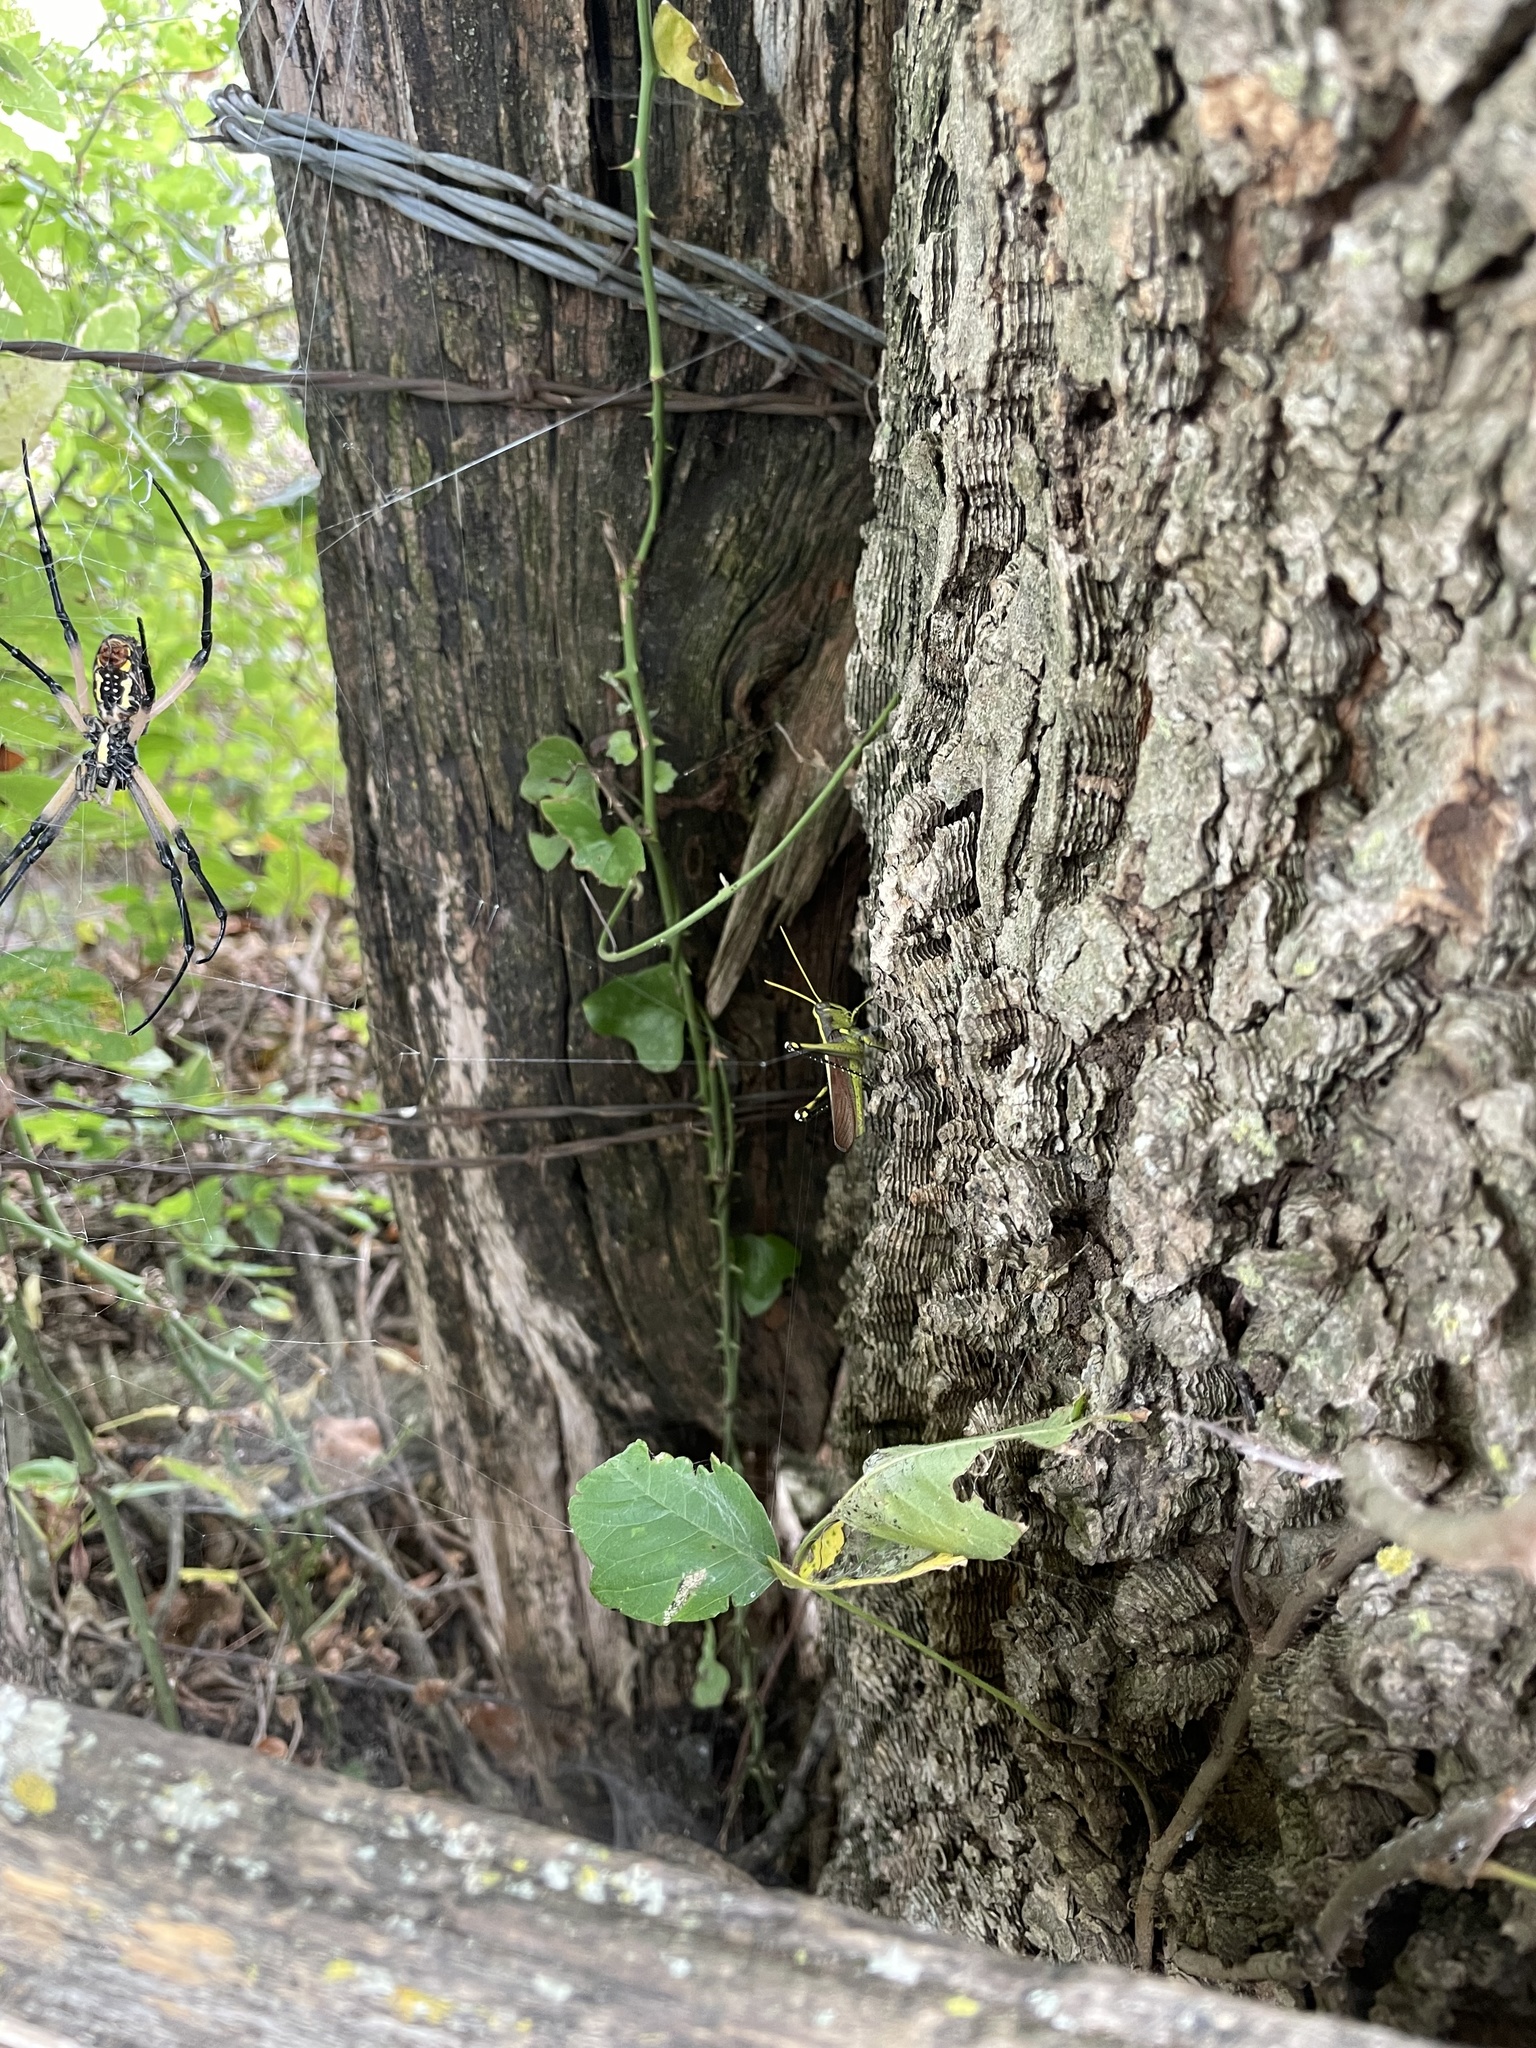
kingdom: Animalia
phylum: Arthropoda
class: Insecta
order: Orthoptera
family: Acrididae
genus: Schistocerca
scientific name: Schistocerca obscura
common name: Obscure bird grasshopper
